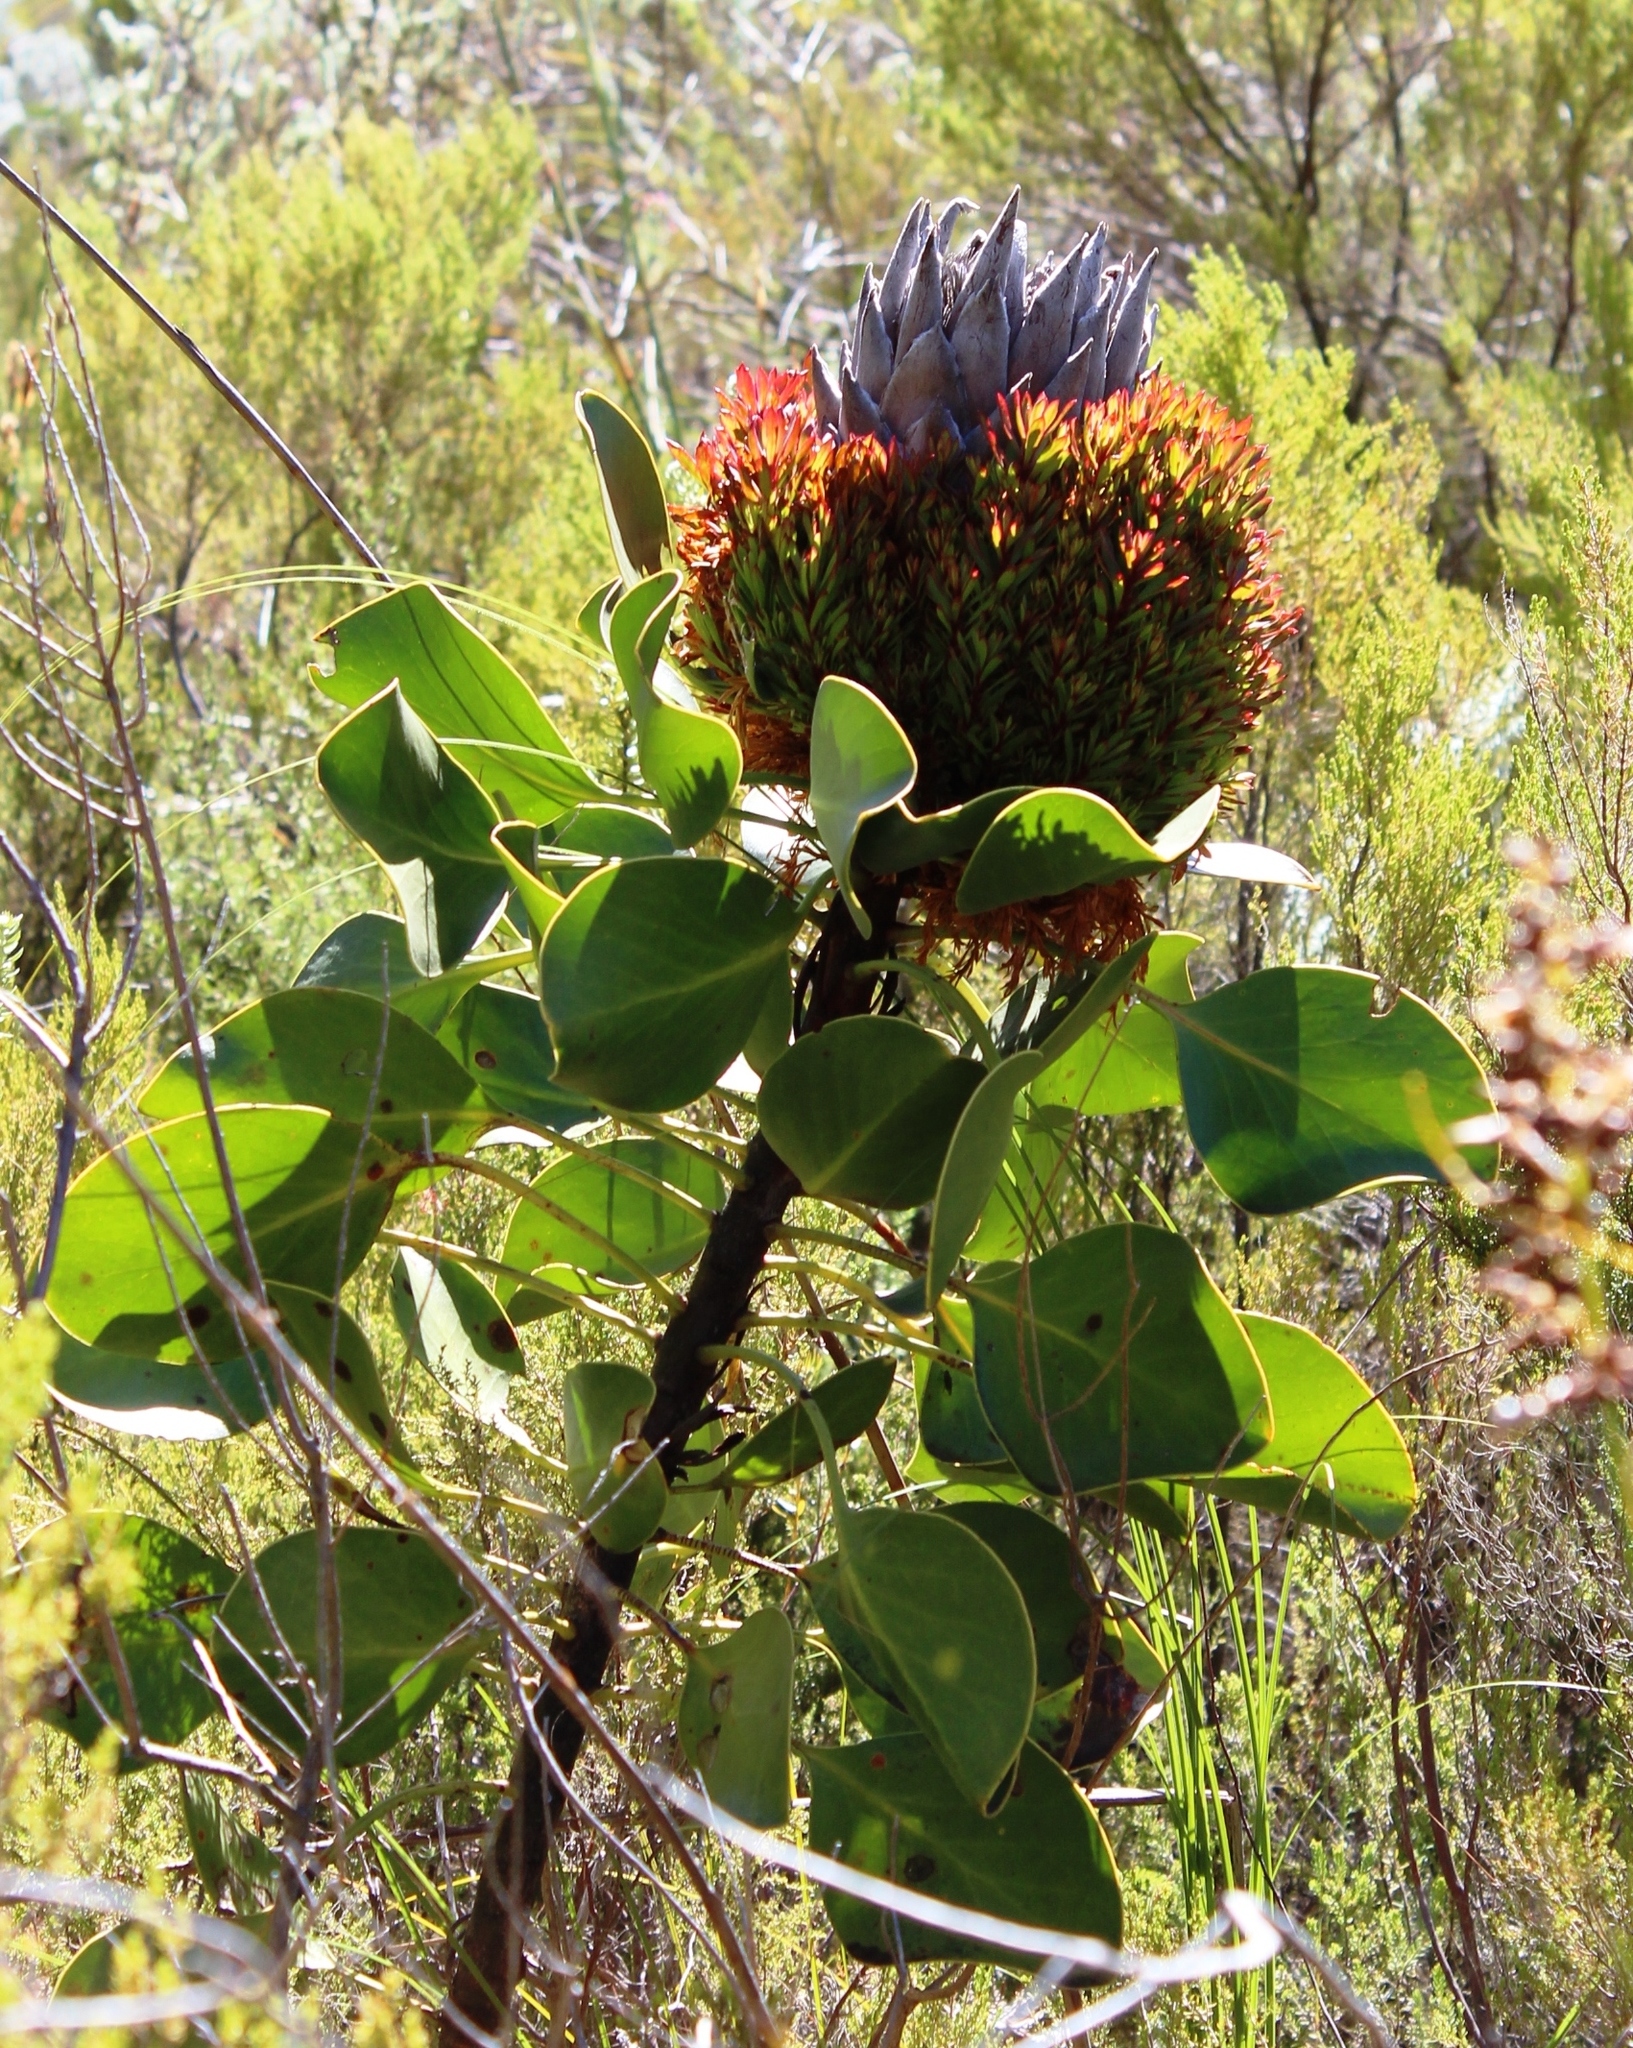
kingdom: Bacteria
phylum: Firmicutes
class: Bacilli
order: Acholeplasmatales
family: Acholeplasmataceae
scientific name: Acholeplasmataceae
